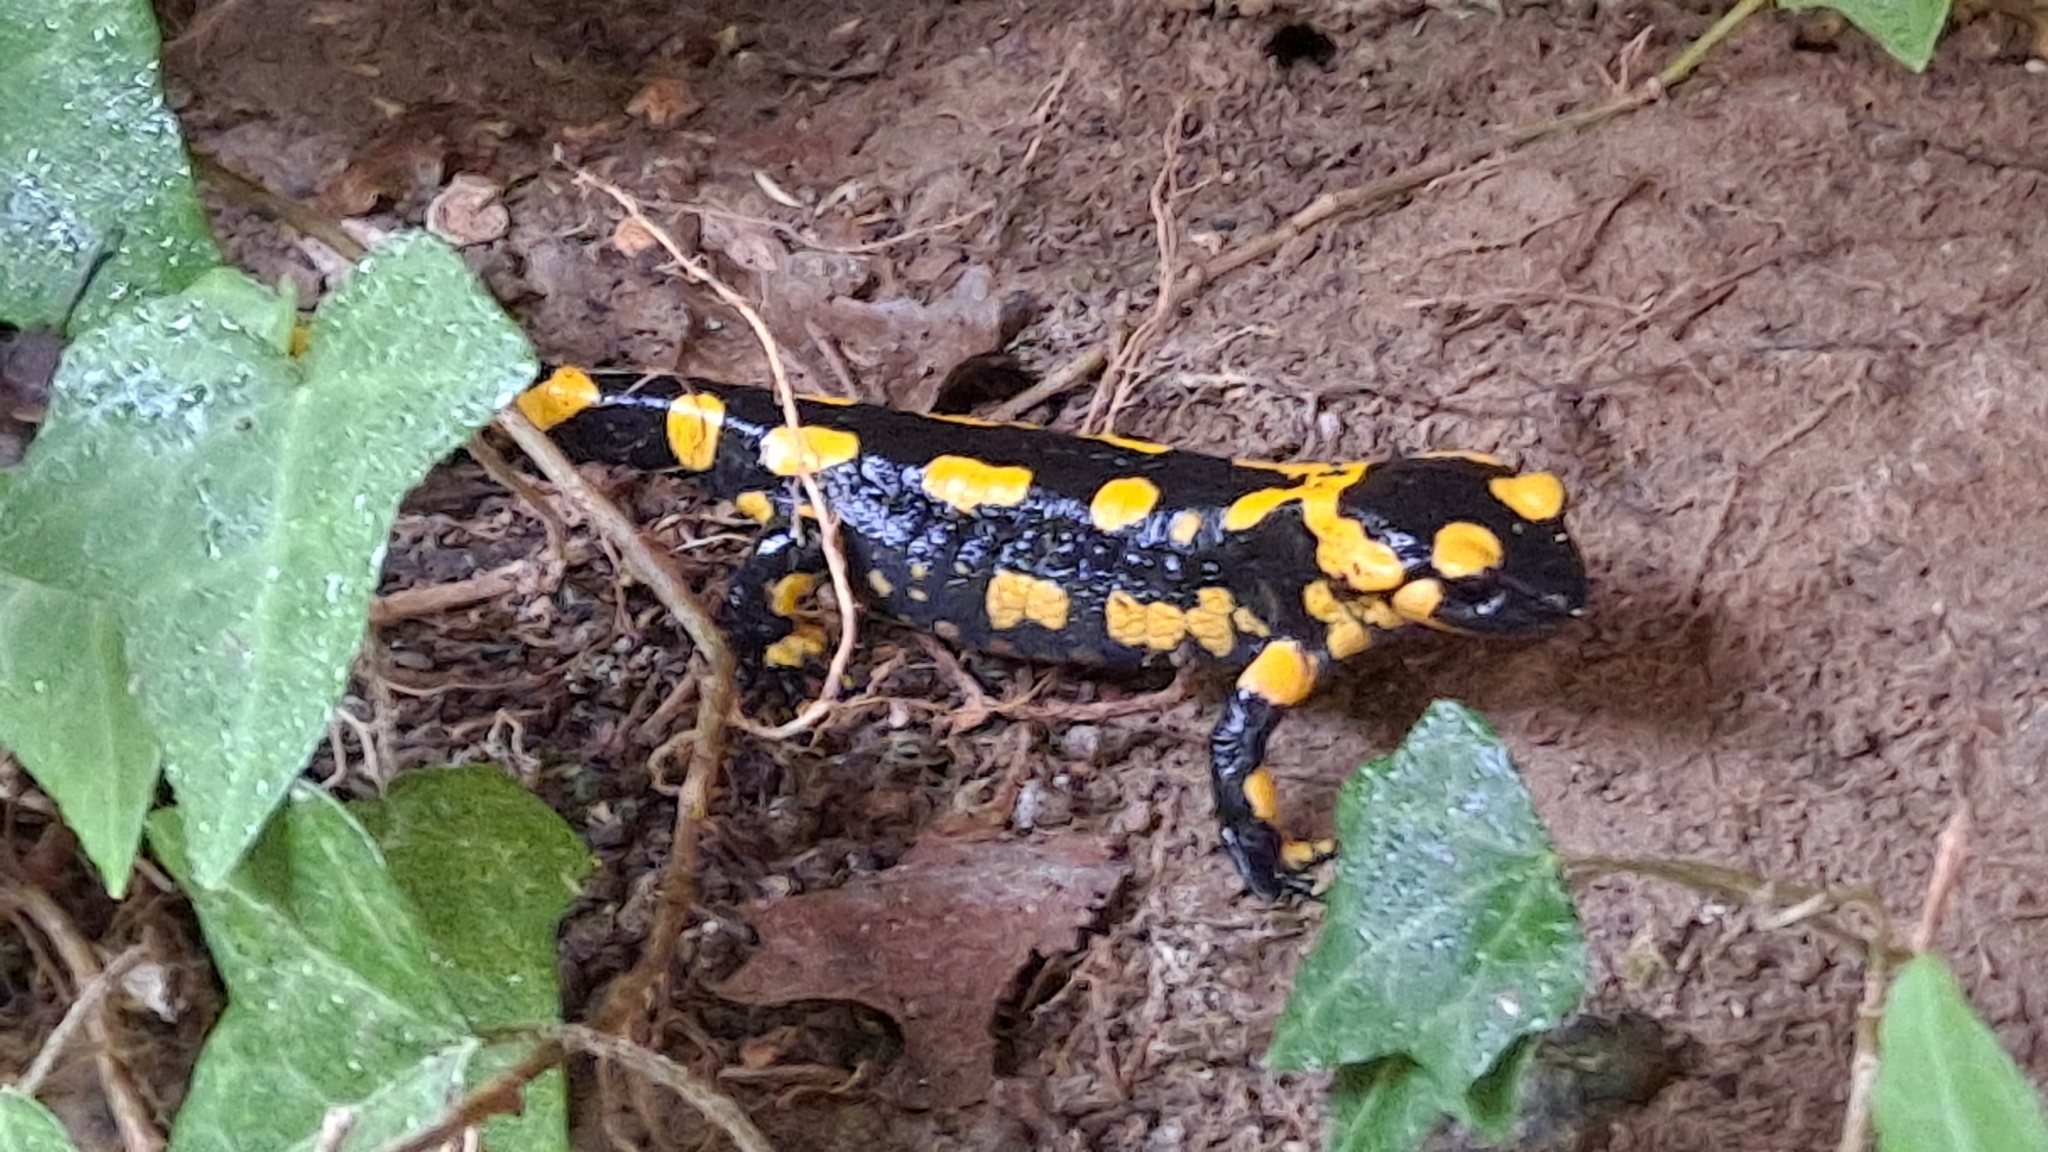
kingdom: Animalia
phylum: Chordata
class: Amphibia
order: Caudata
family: Salamandridae
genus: Salamandra
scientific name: Salamandra salamandra
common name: Fire salamander
